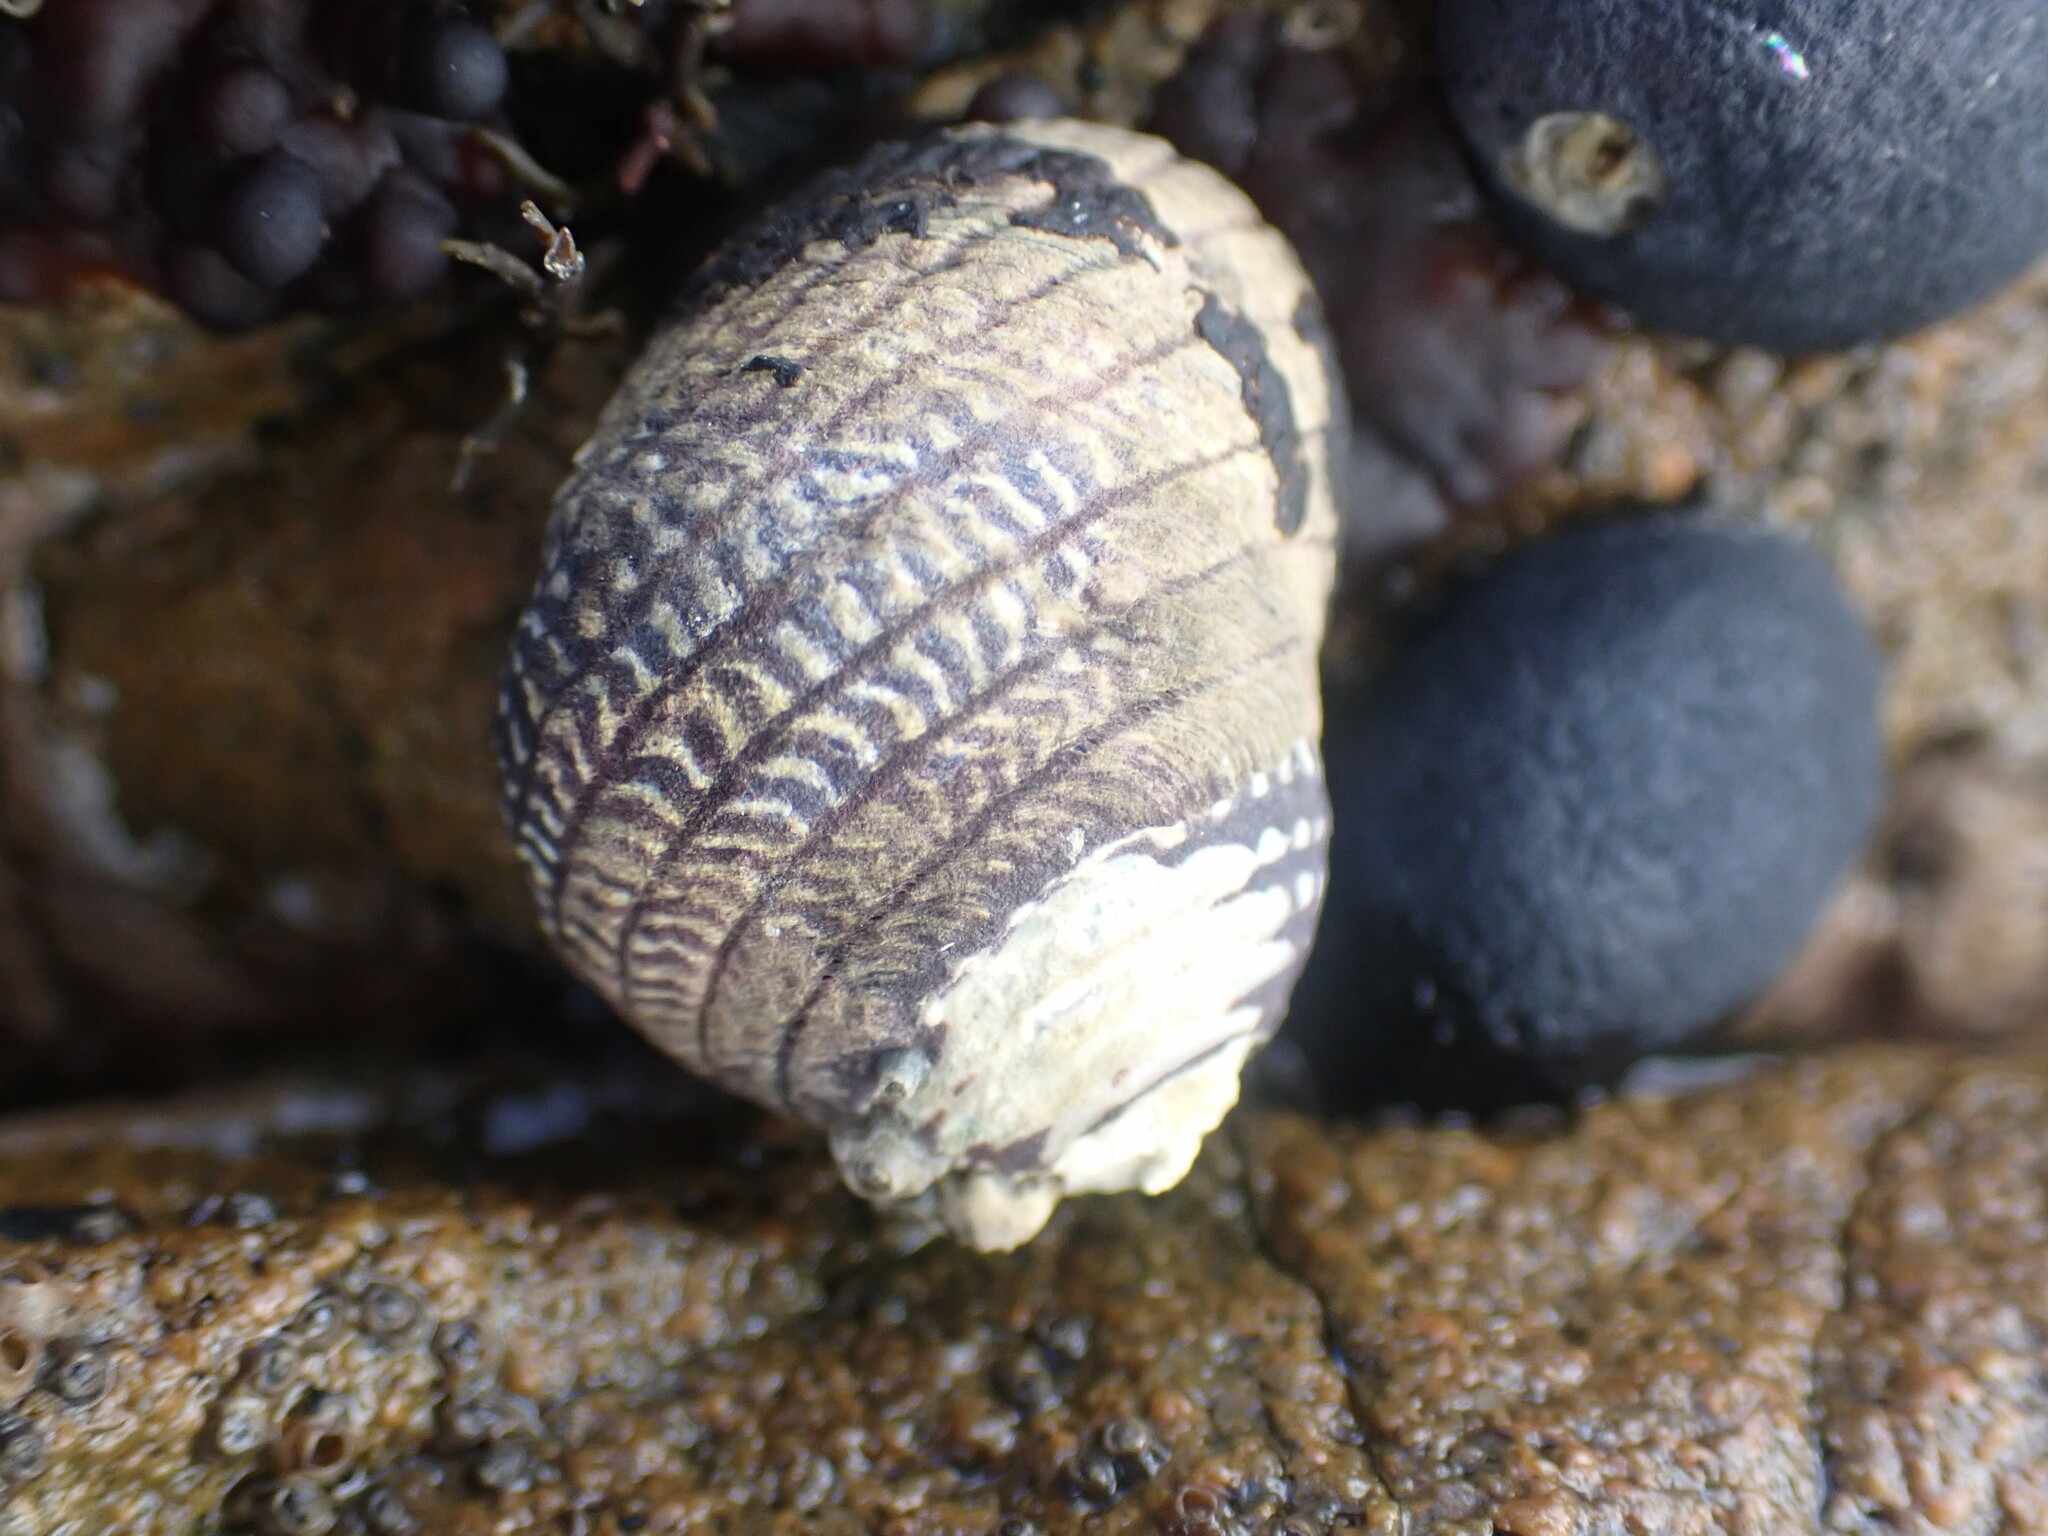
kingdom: Animalia
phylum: Mollusca
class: Gastropoda
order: Trochida
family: Trochidae
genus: Diloma
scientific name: Diloma aethiops
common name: Scorched monodont
